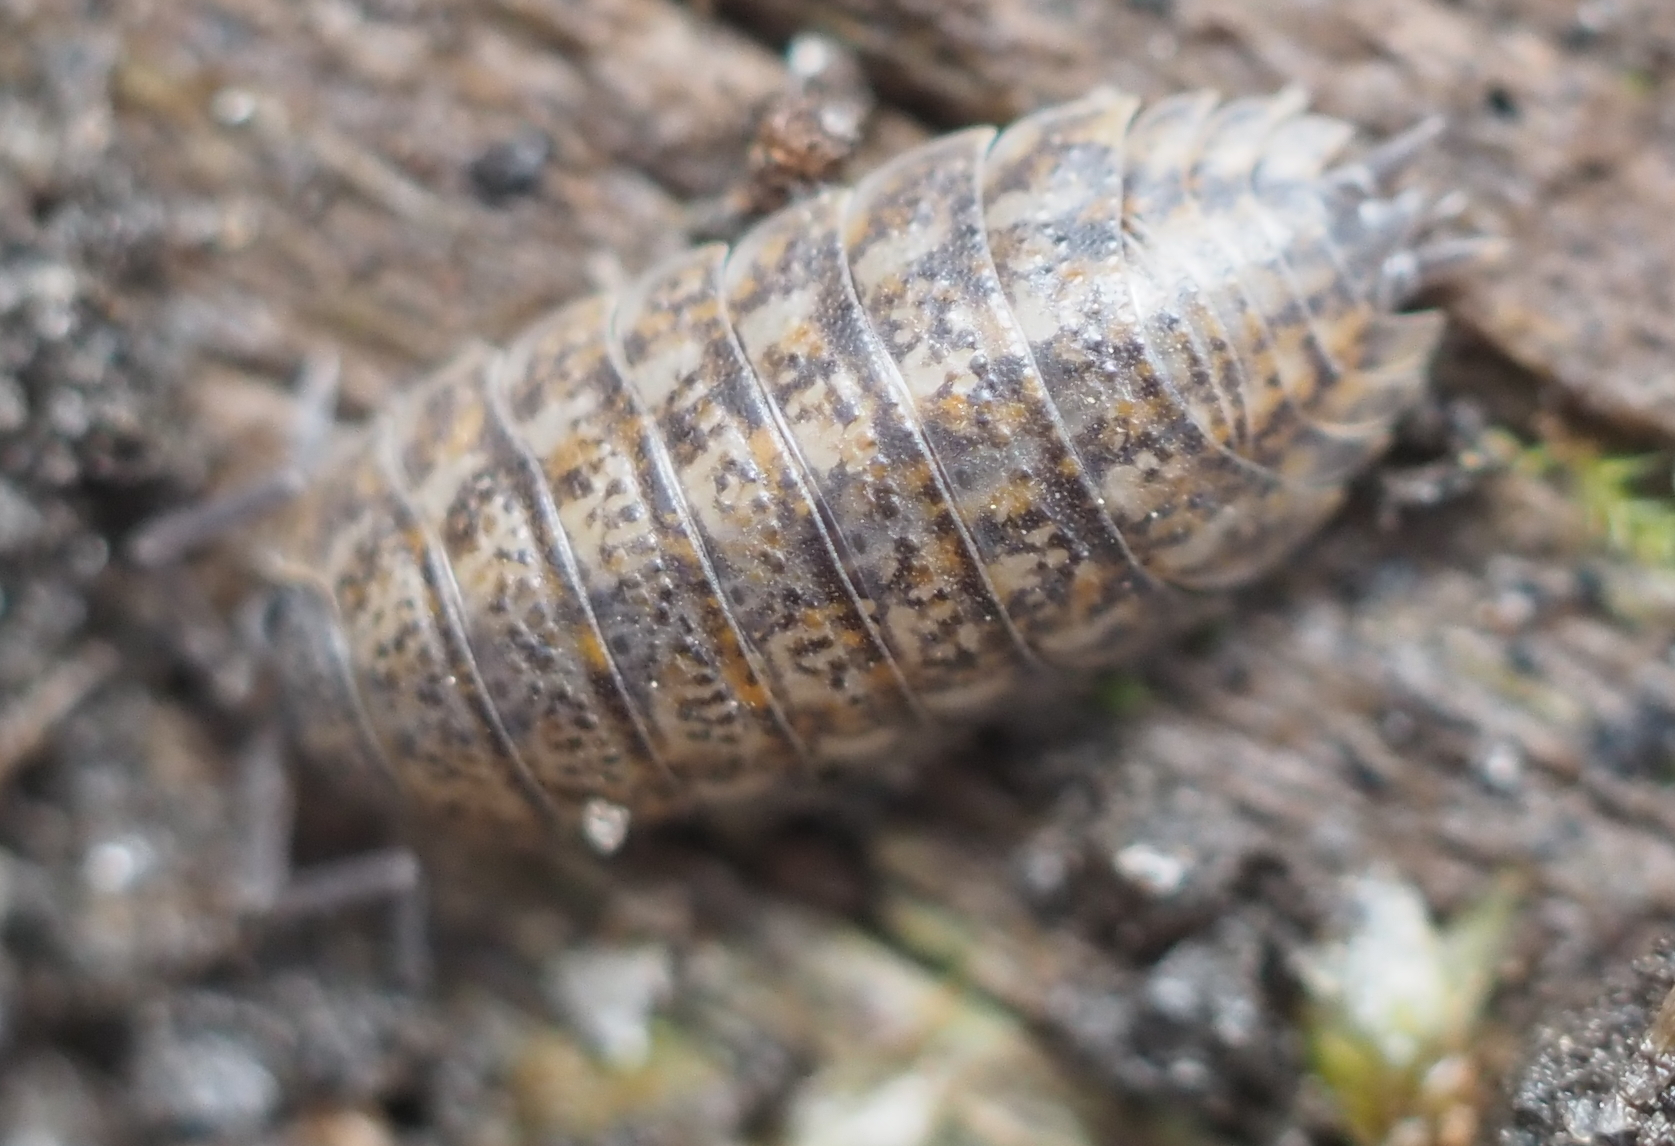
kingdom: Animalia
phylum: Arthropoda
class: Malacostraca
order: Isopoda
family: Trachelipodidae
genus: Trachelipus
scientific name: Trachelipus rathkii
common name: Isopod
